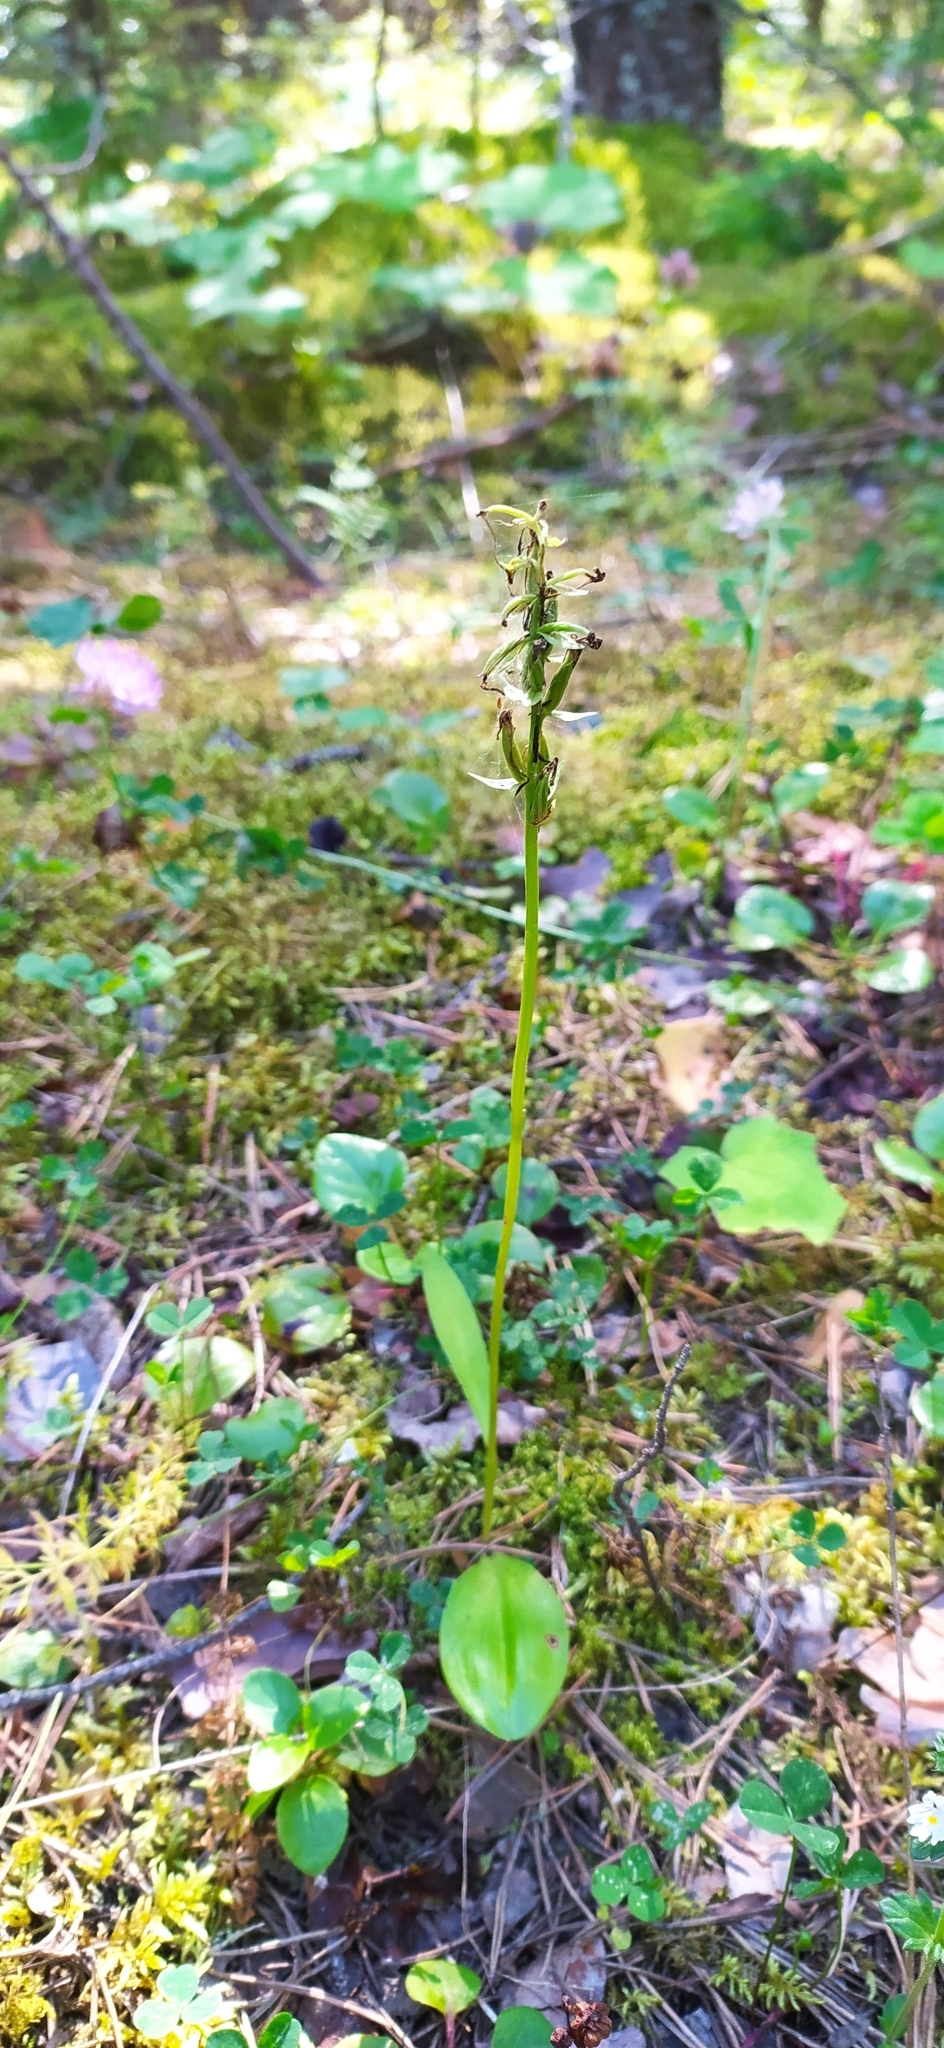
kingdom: Plantae
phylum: Tracheophyta
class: Liliopsida
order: Asparagales
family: Orchidaceae
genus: Platanthera
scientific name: Platanthera bifolia
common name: Lesser butterfly-orchid
